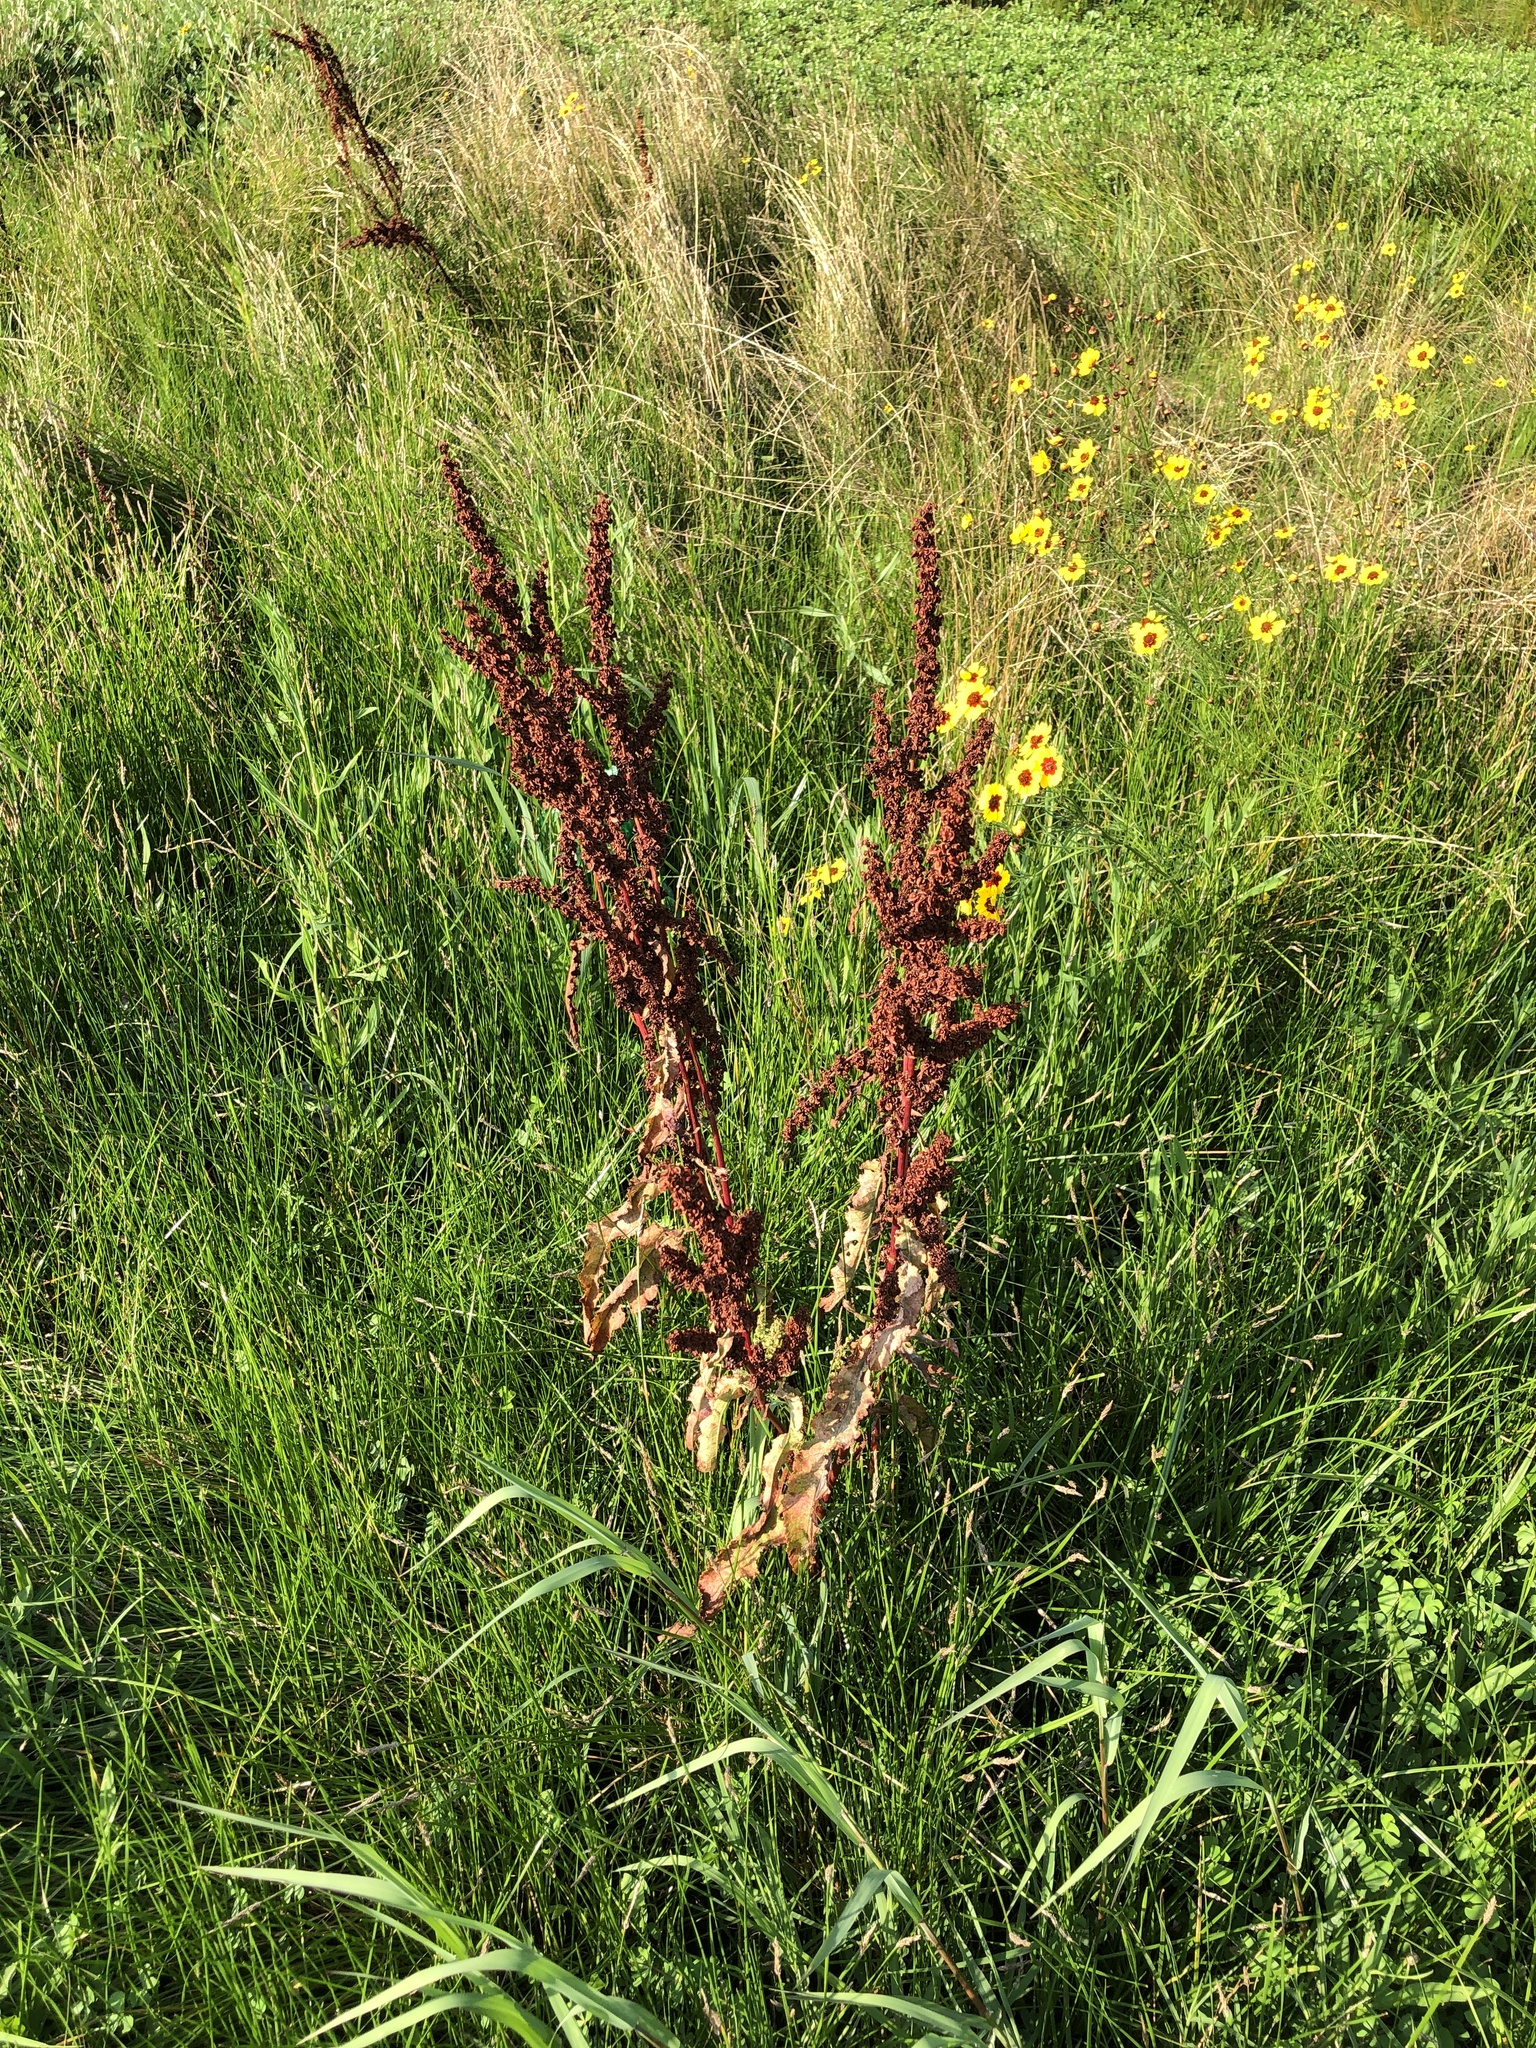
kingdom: Plantae
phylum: Tracheophyta
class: Magnoliopsida
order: Caryophyllales
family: Polygonaceae
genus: Rumex
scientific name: Rumex crispus
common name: Curled dock
